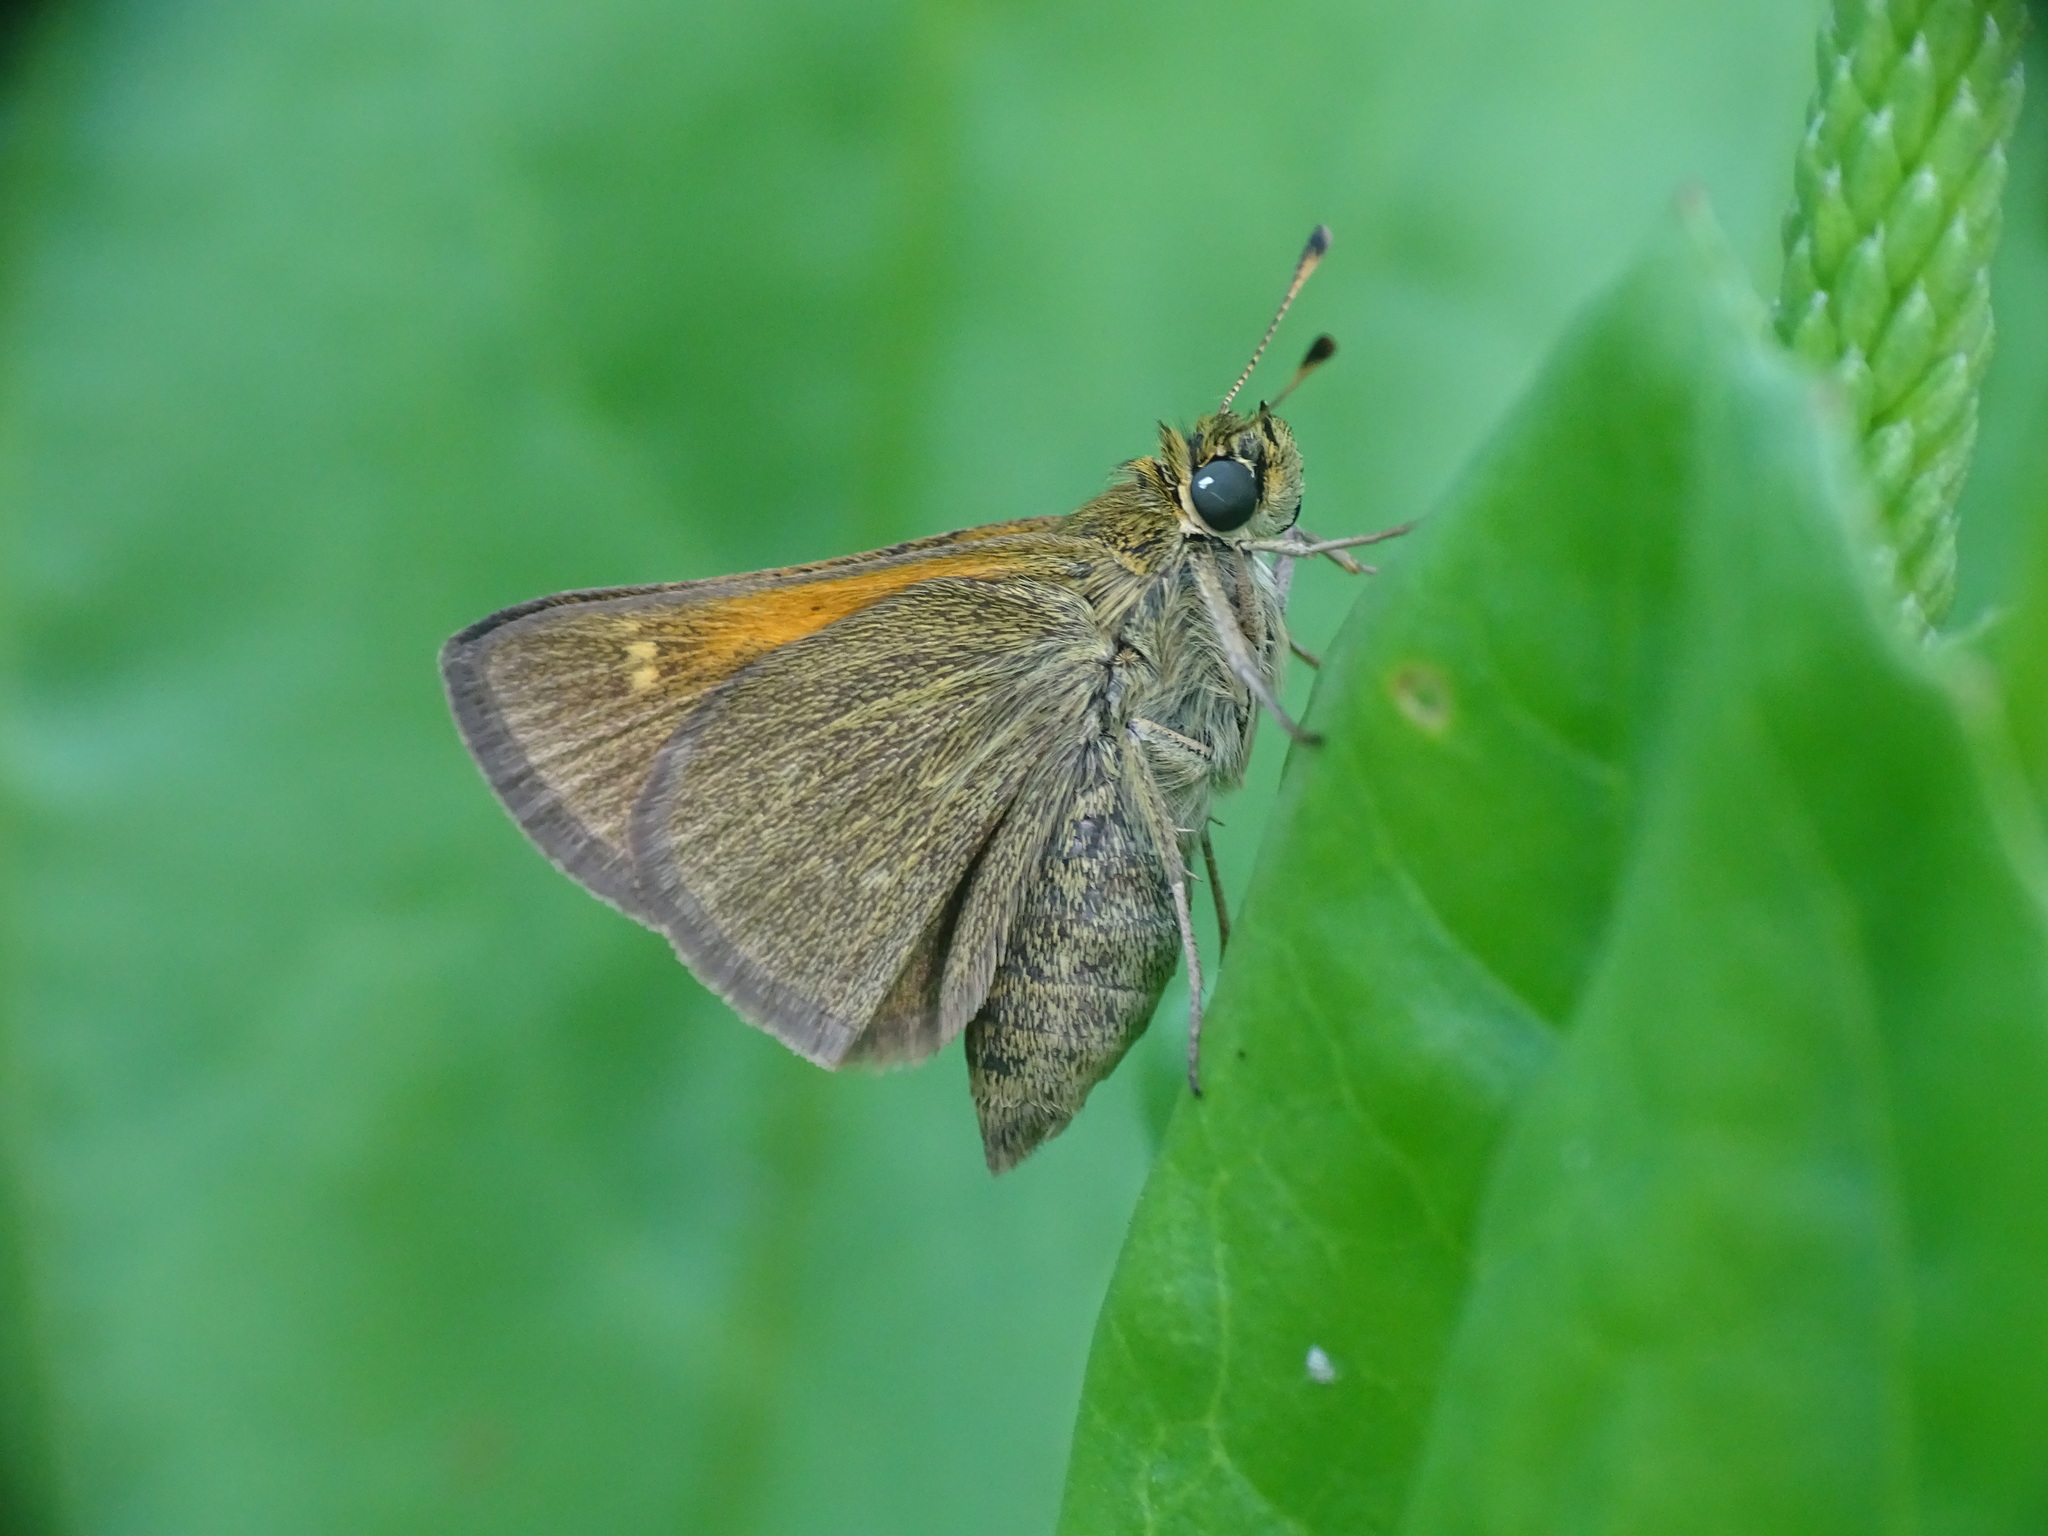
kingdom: Animalia
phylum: Arthropoda
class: Insecta
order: Lepidoptera
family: Hesperiidae
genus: Polites
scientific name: Polites themistocles
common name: Tawny-edged skipper
